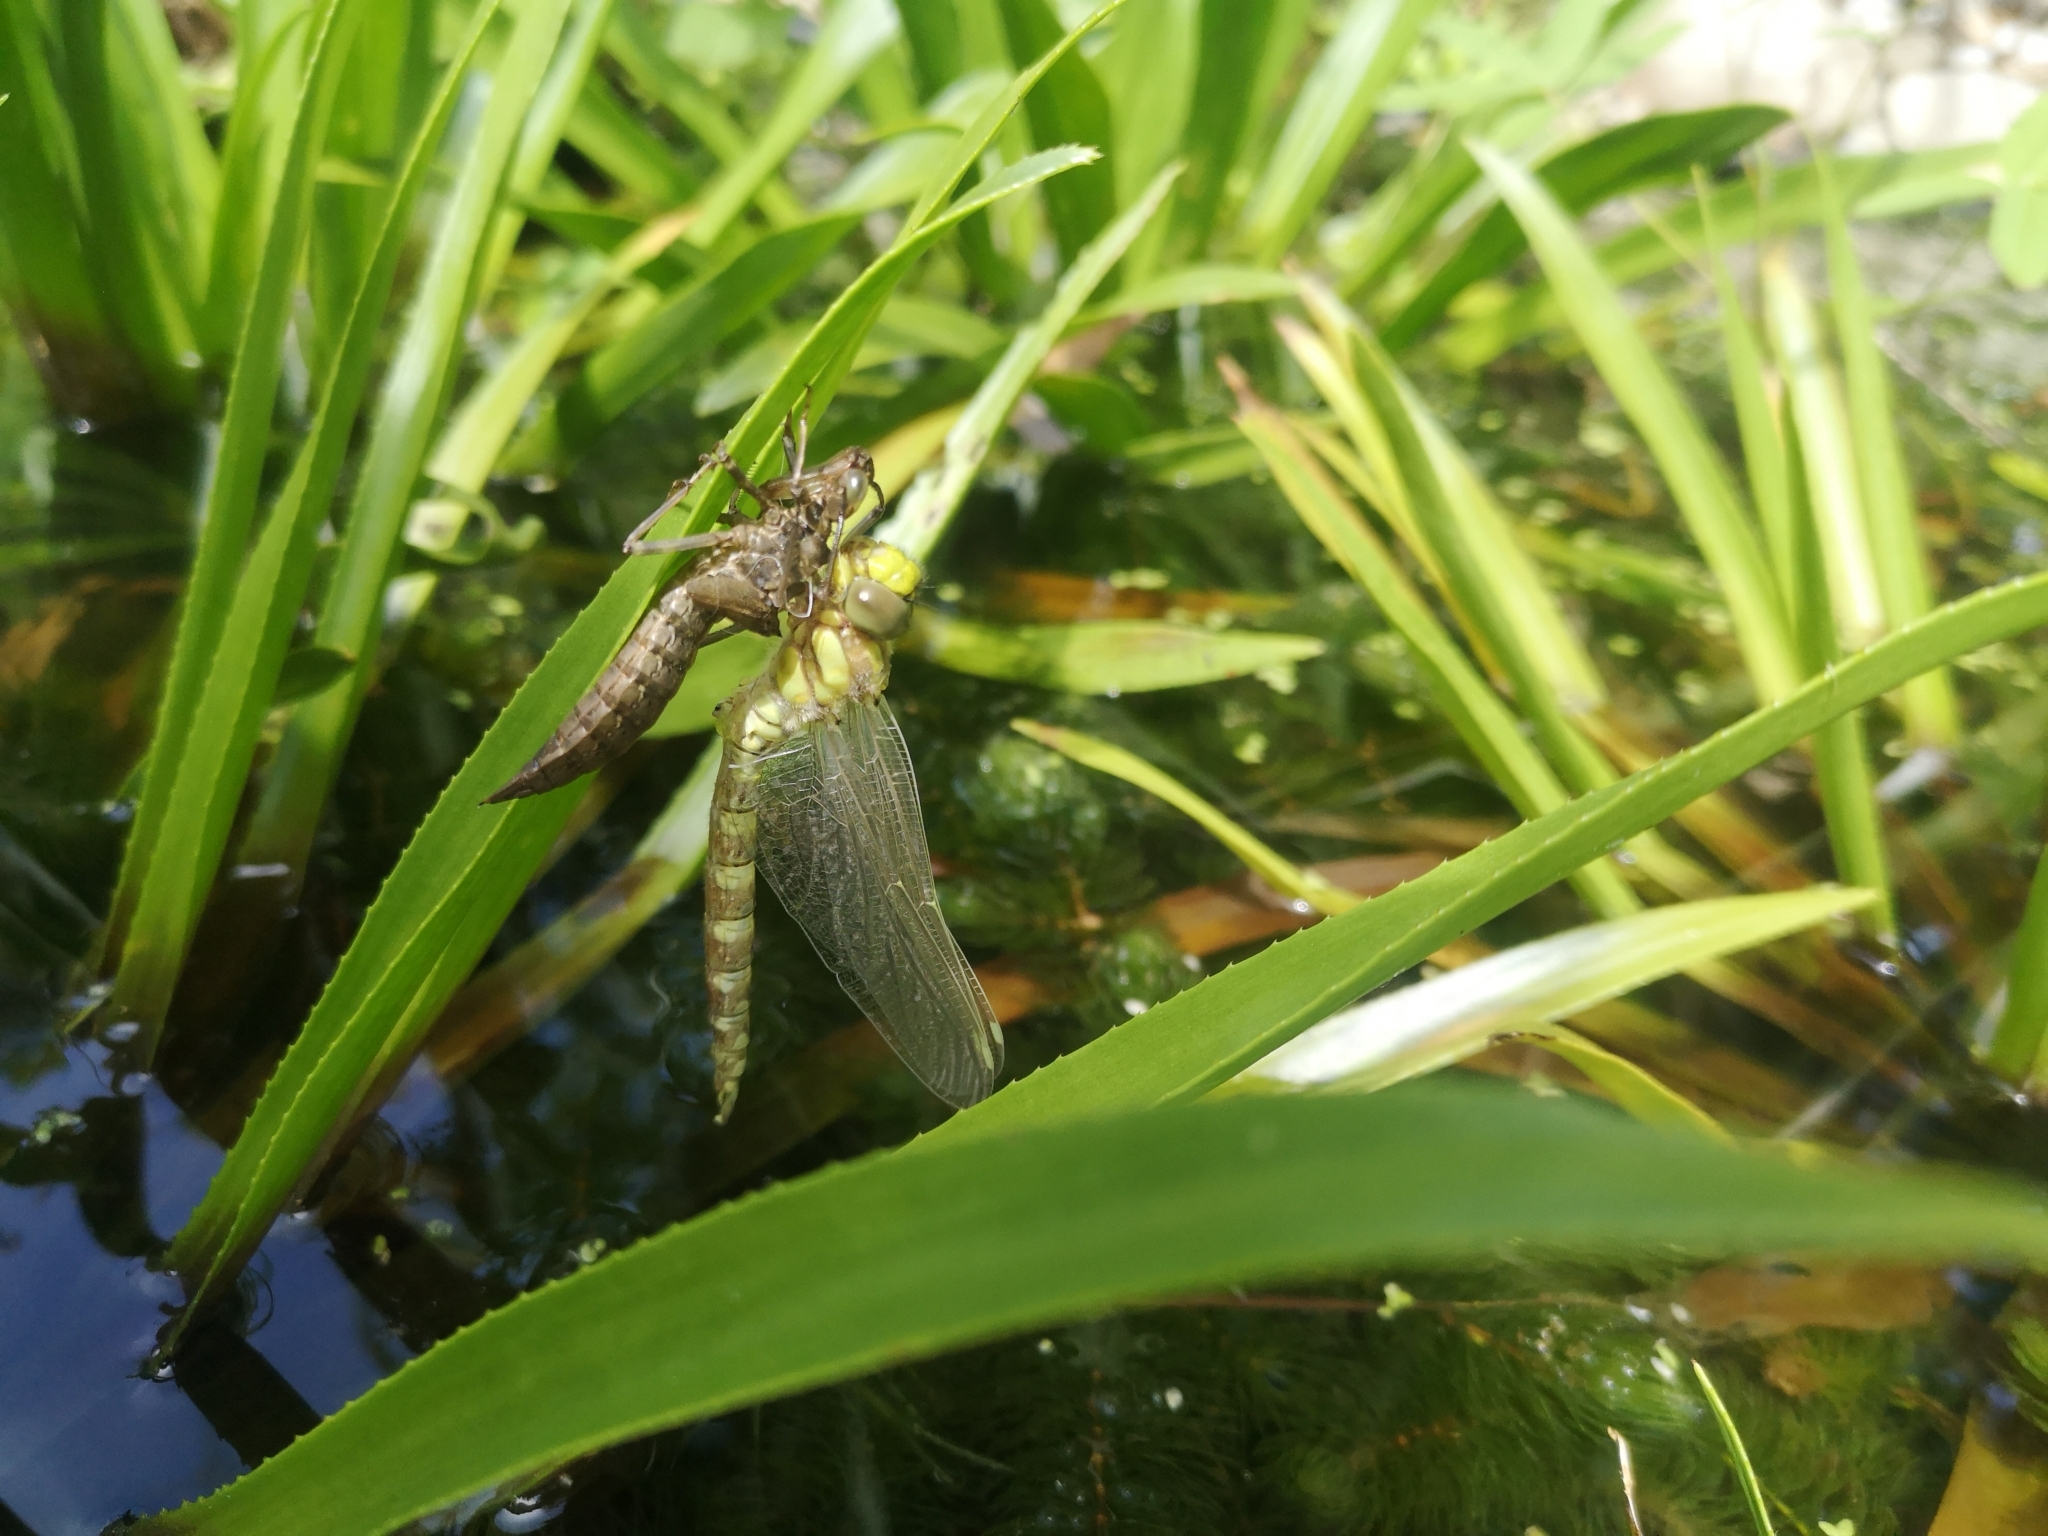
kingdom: Animalia
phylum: Arthropoda
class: Insecta
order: Odonata
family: Aeshnidae
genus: Aeshna
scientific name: Aeshna cyanea
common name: Southern hawker
